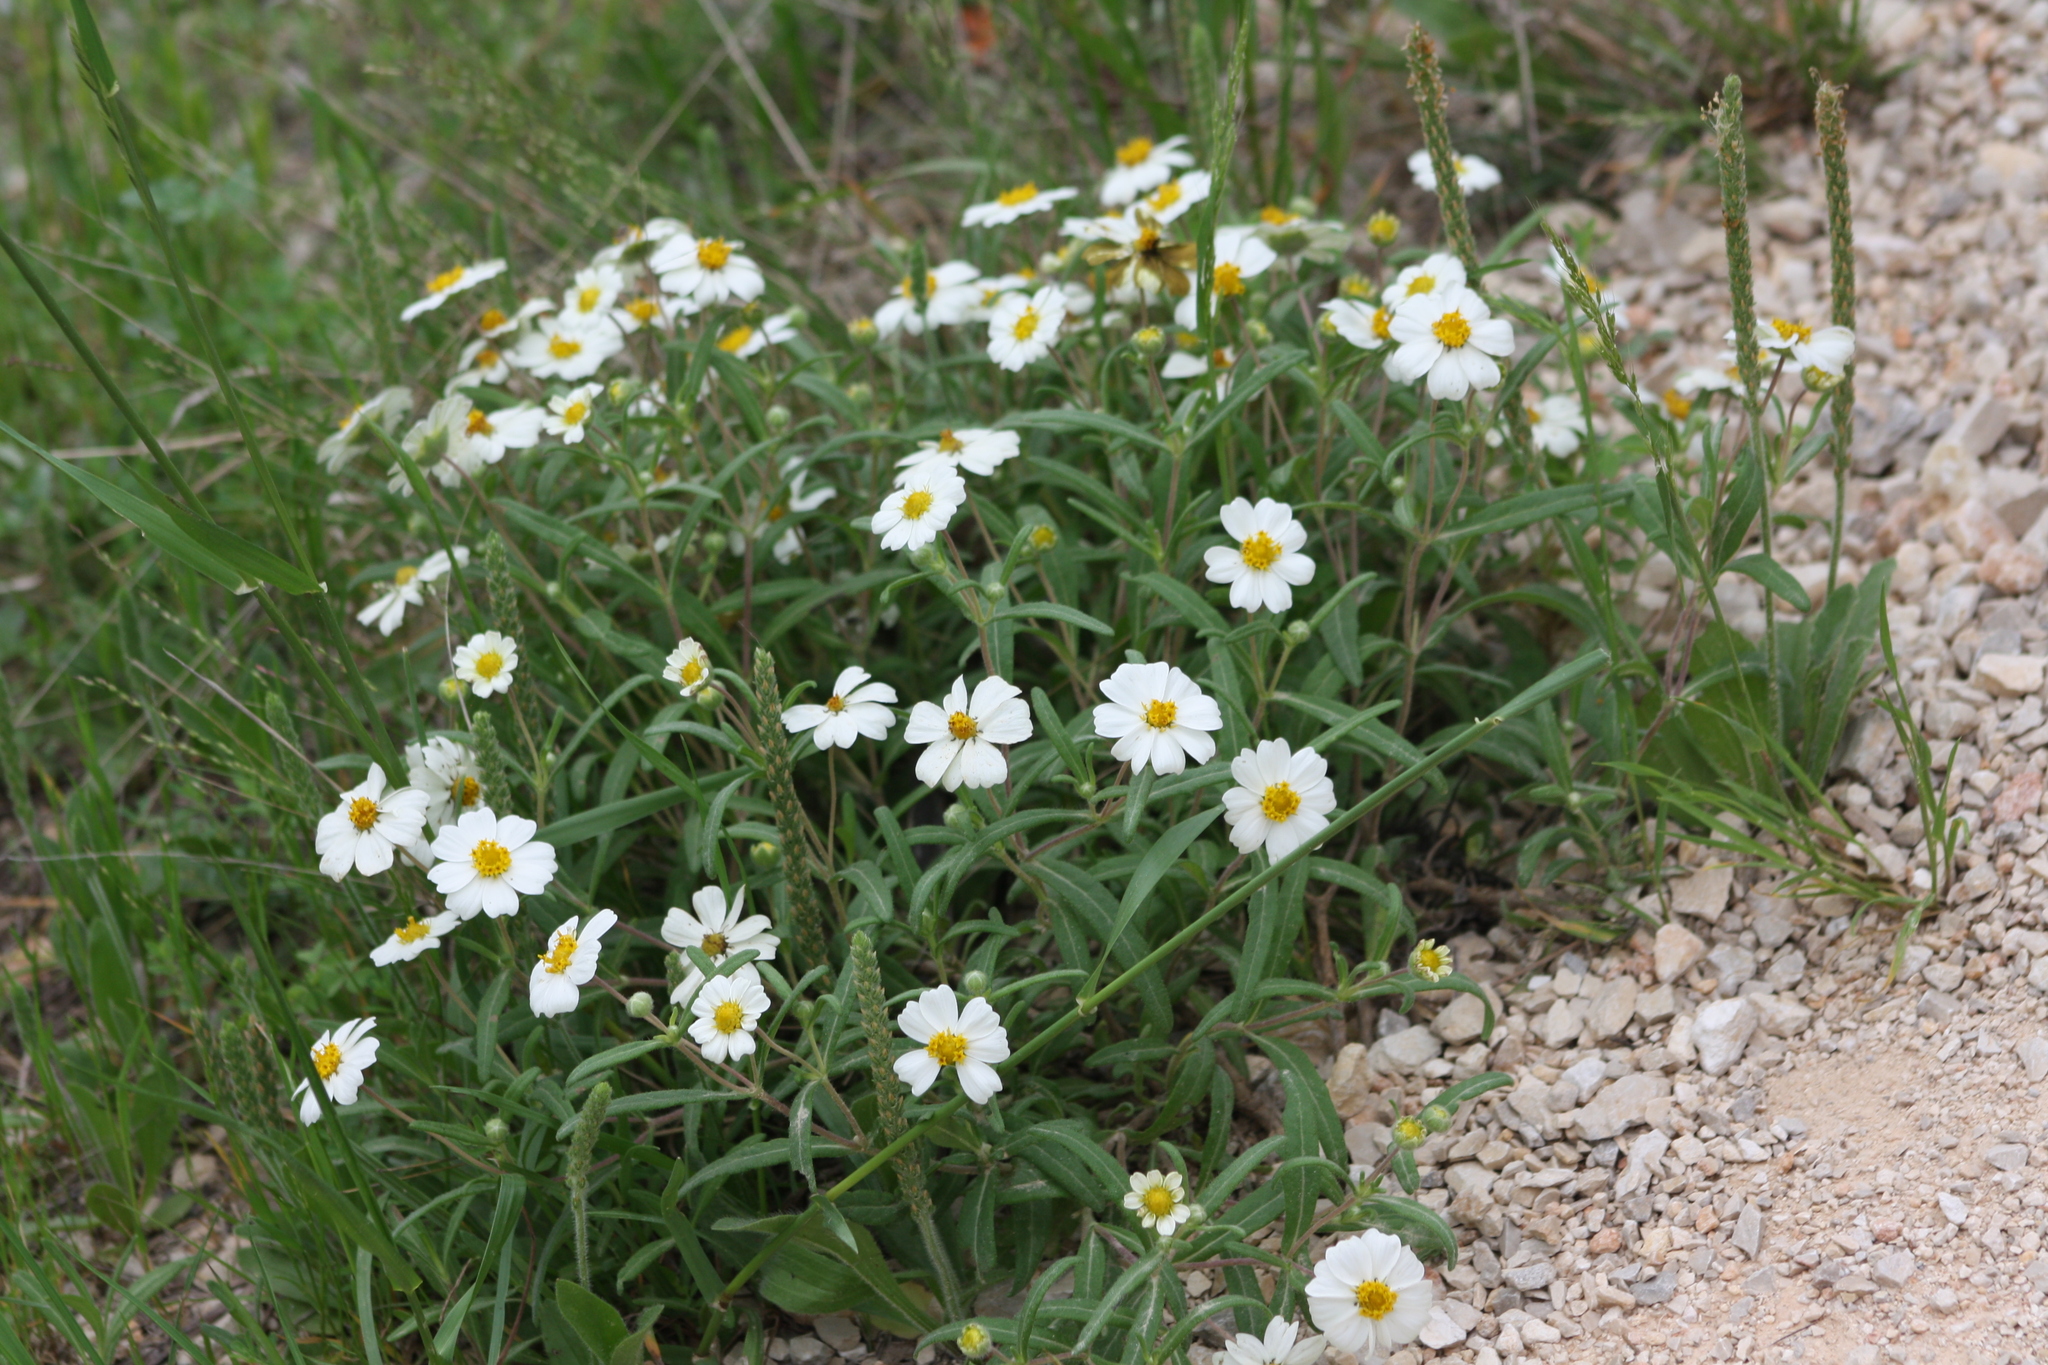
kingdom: Plantae
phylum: Tracheophyta
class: Magnoliopsida
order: Asterales
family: Asteraceae
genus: Melampodium
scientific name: Melampodium leucanthum
